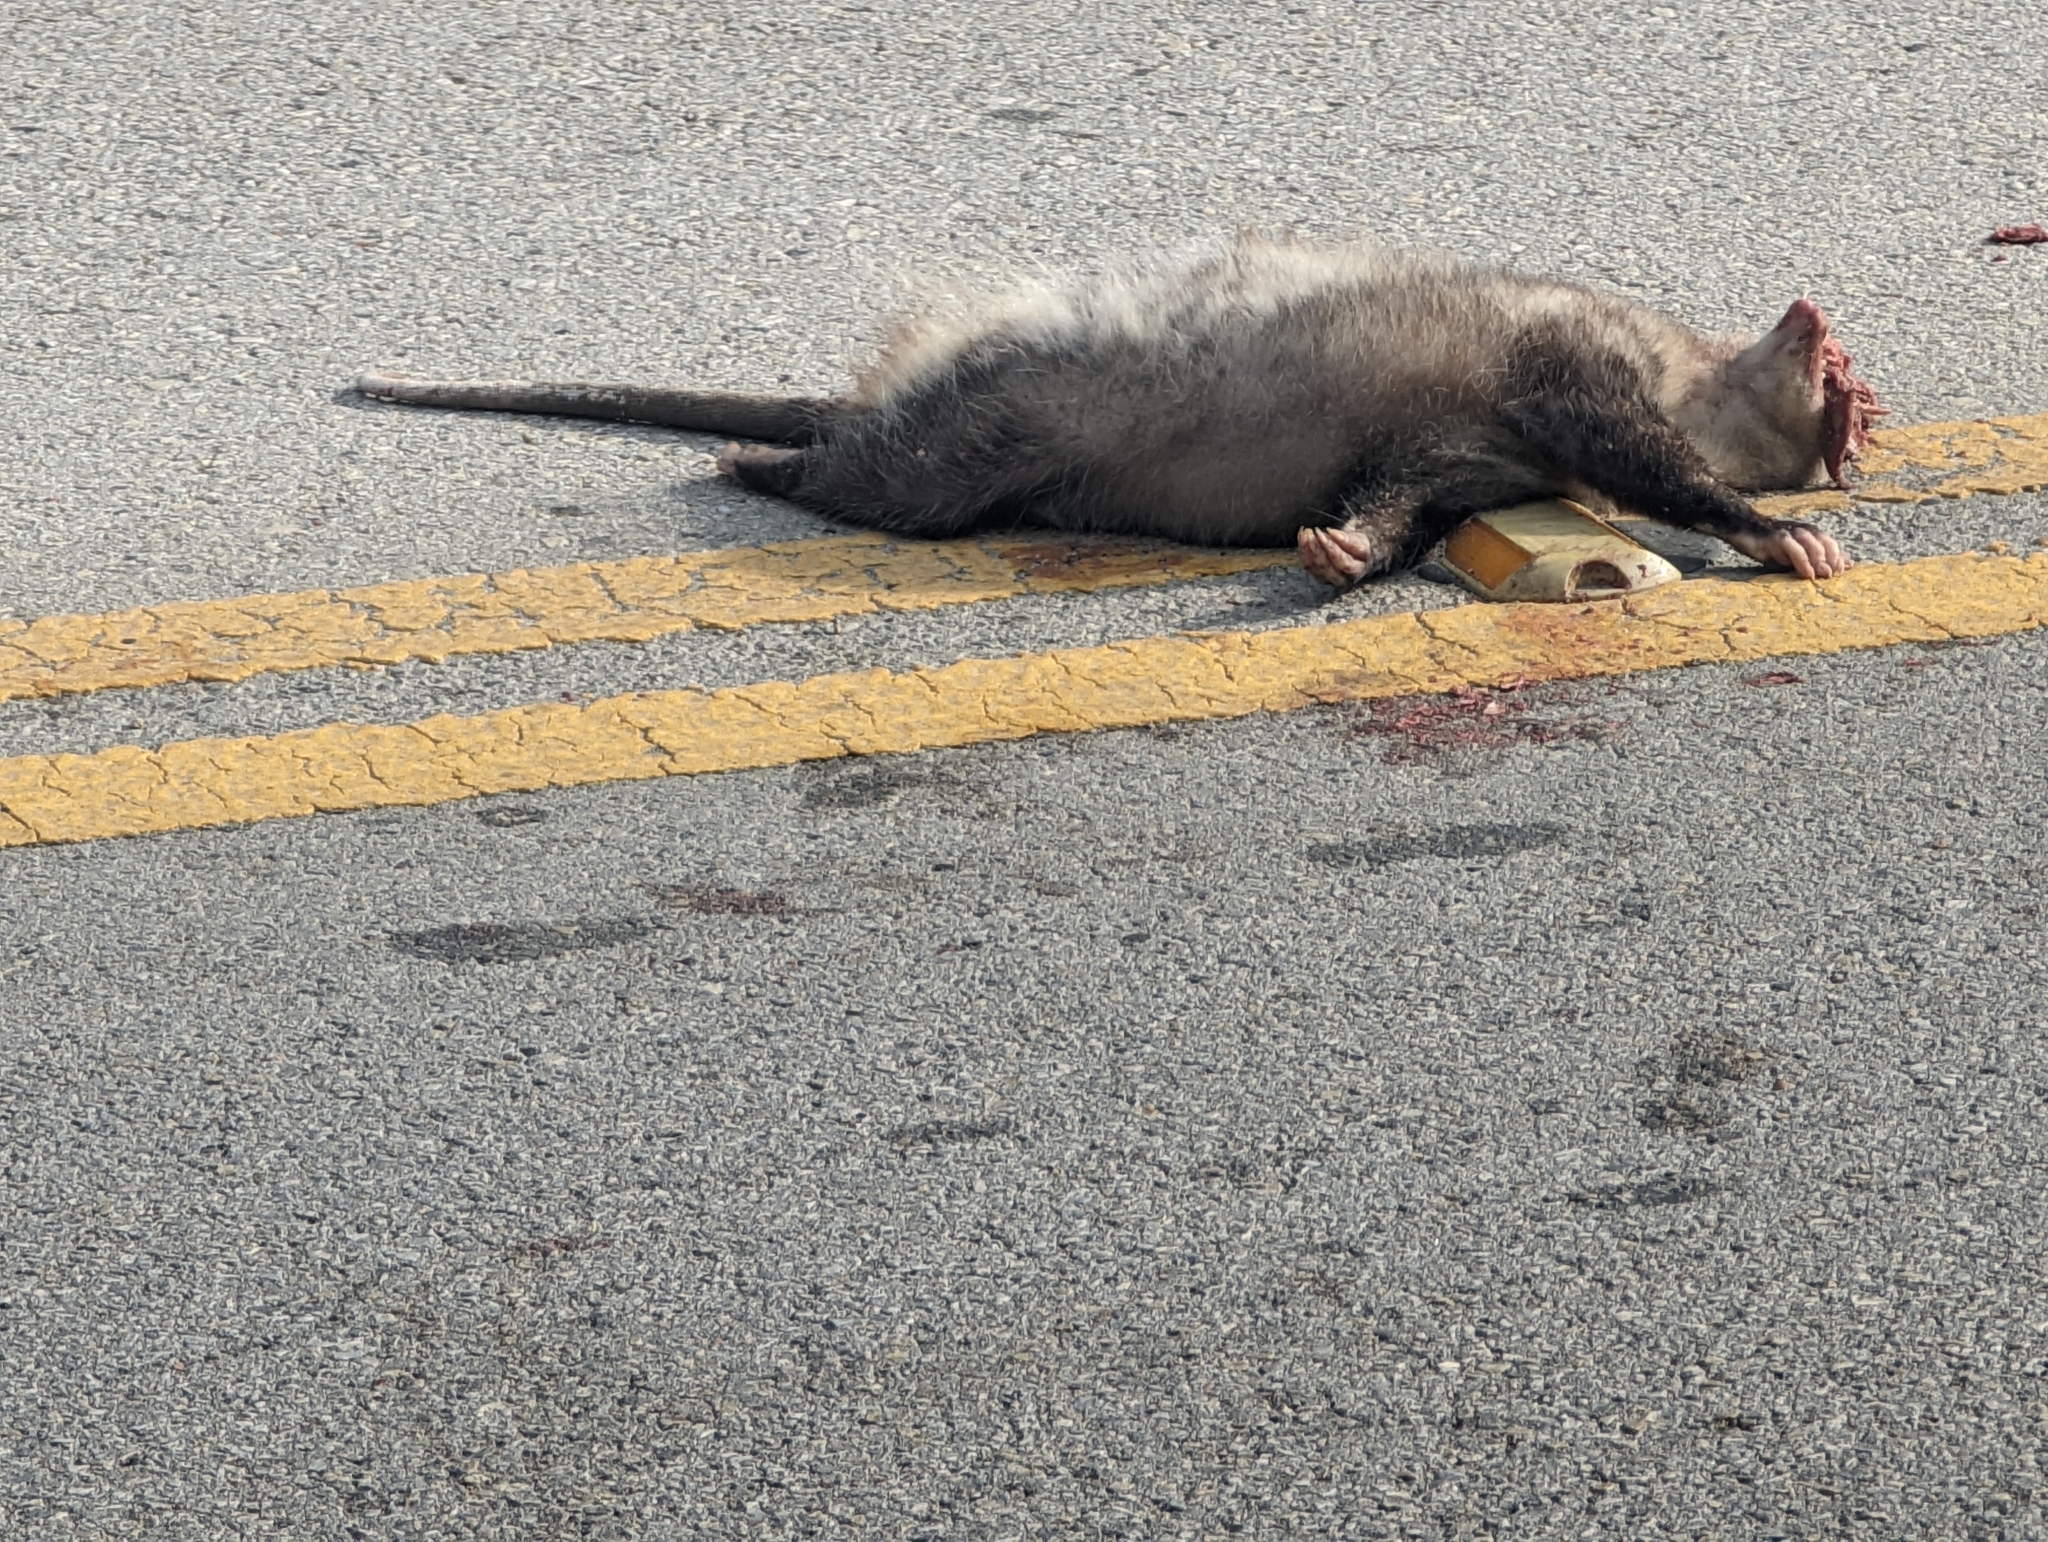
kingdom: Animalia
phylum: Chordata
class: Mammalia
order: Didelphimorphia
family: Didelphidae
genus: Didelphis
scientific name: Didelphis virginiana
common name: Virginia opossum
